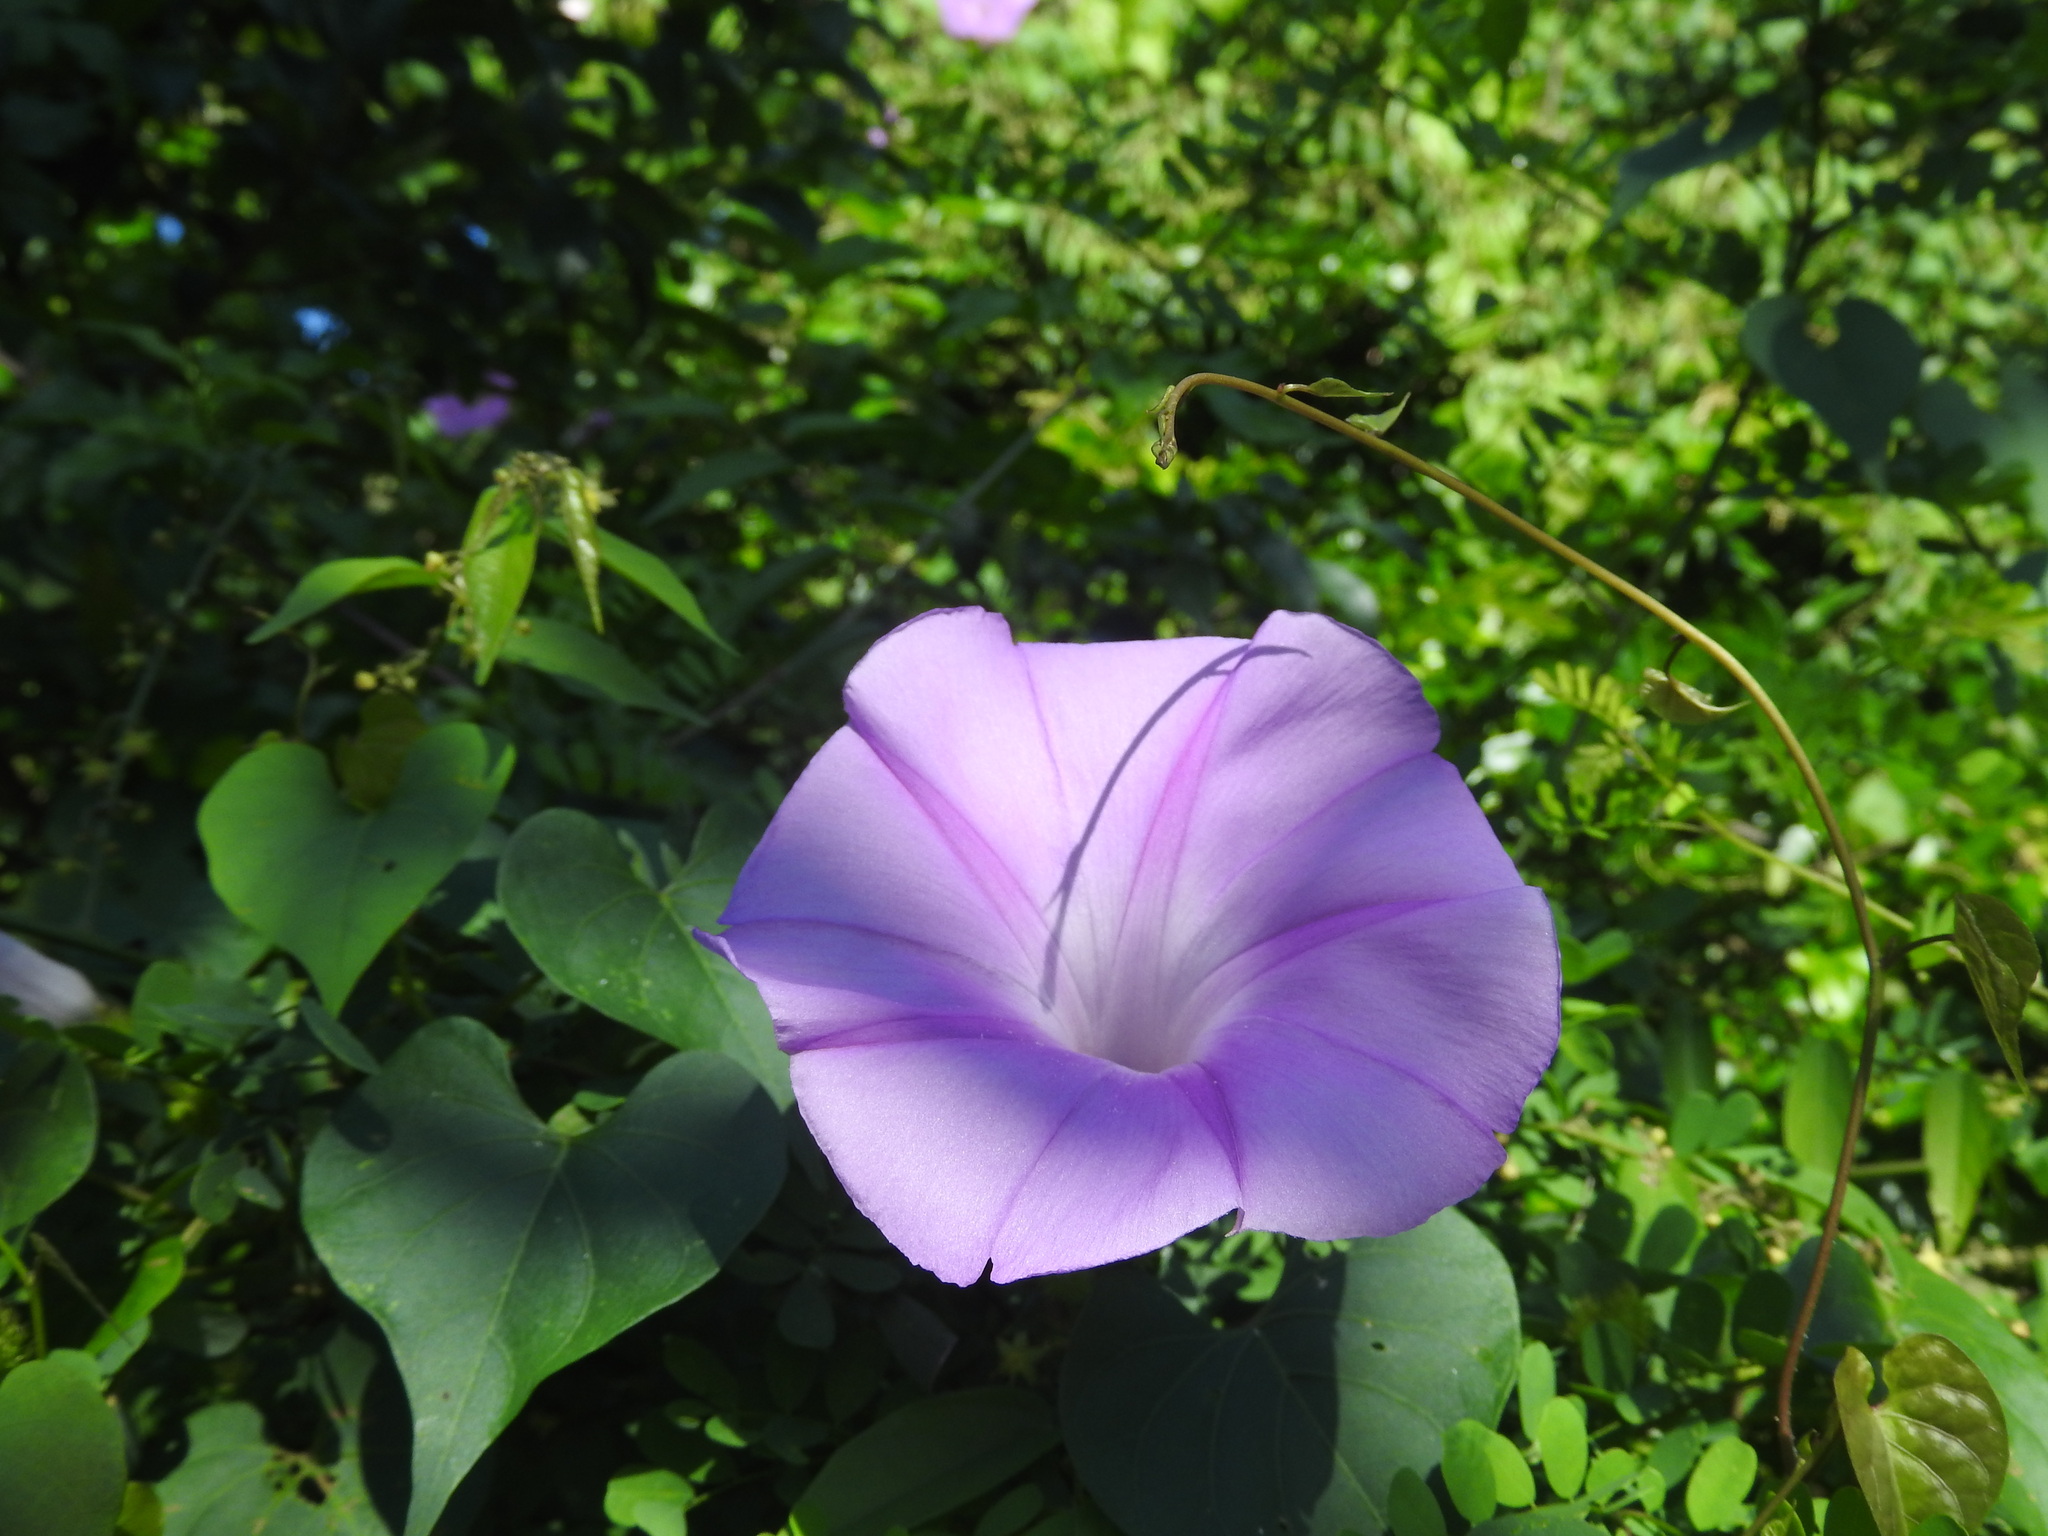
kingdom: Plantae
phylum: Tracheophyta
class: Magnoliopsida
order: Solanales
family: Convolvulaceae
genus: Ipomoea
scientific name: Ipomoea indica
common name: Blue dawnflower
